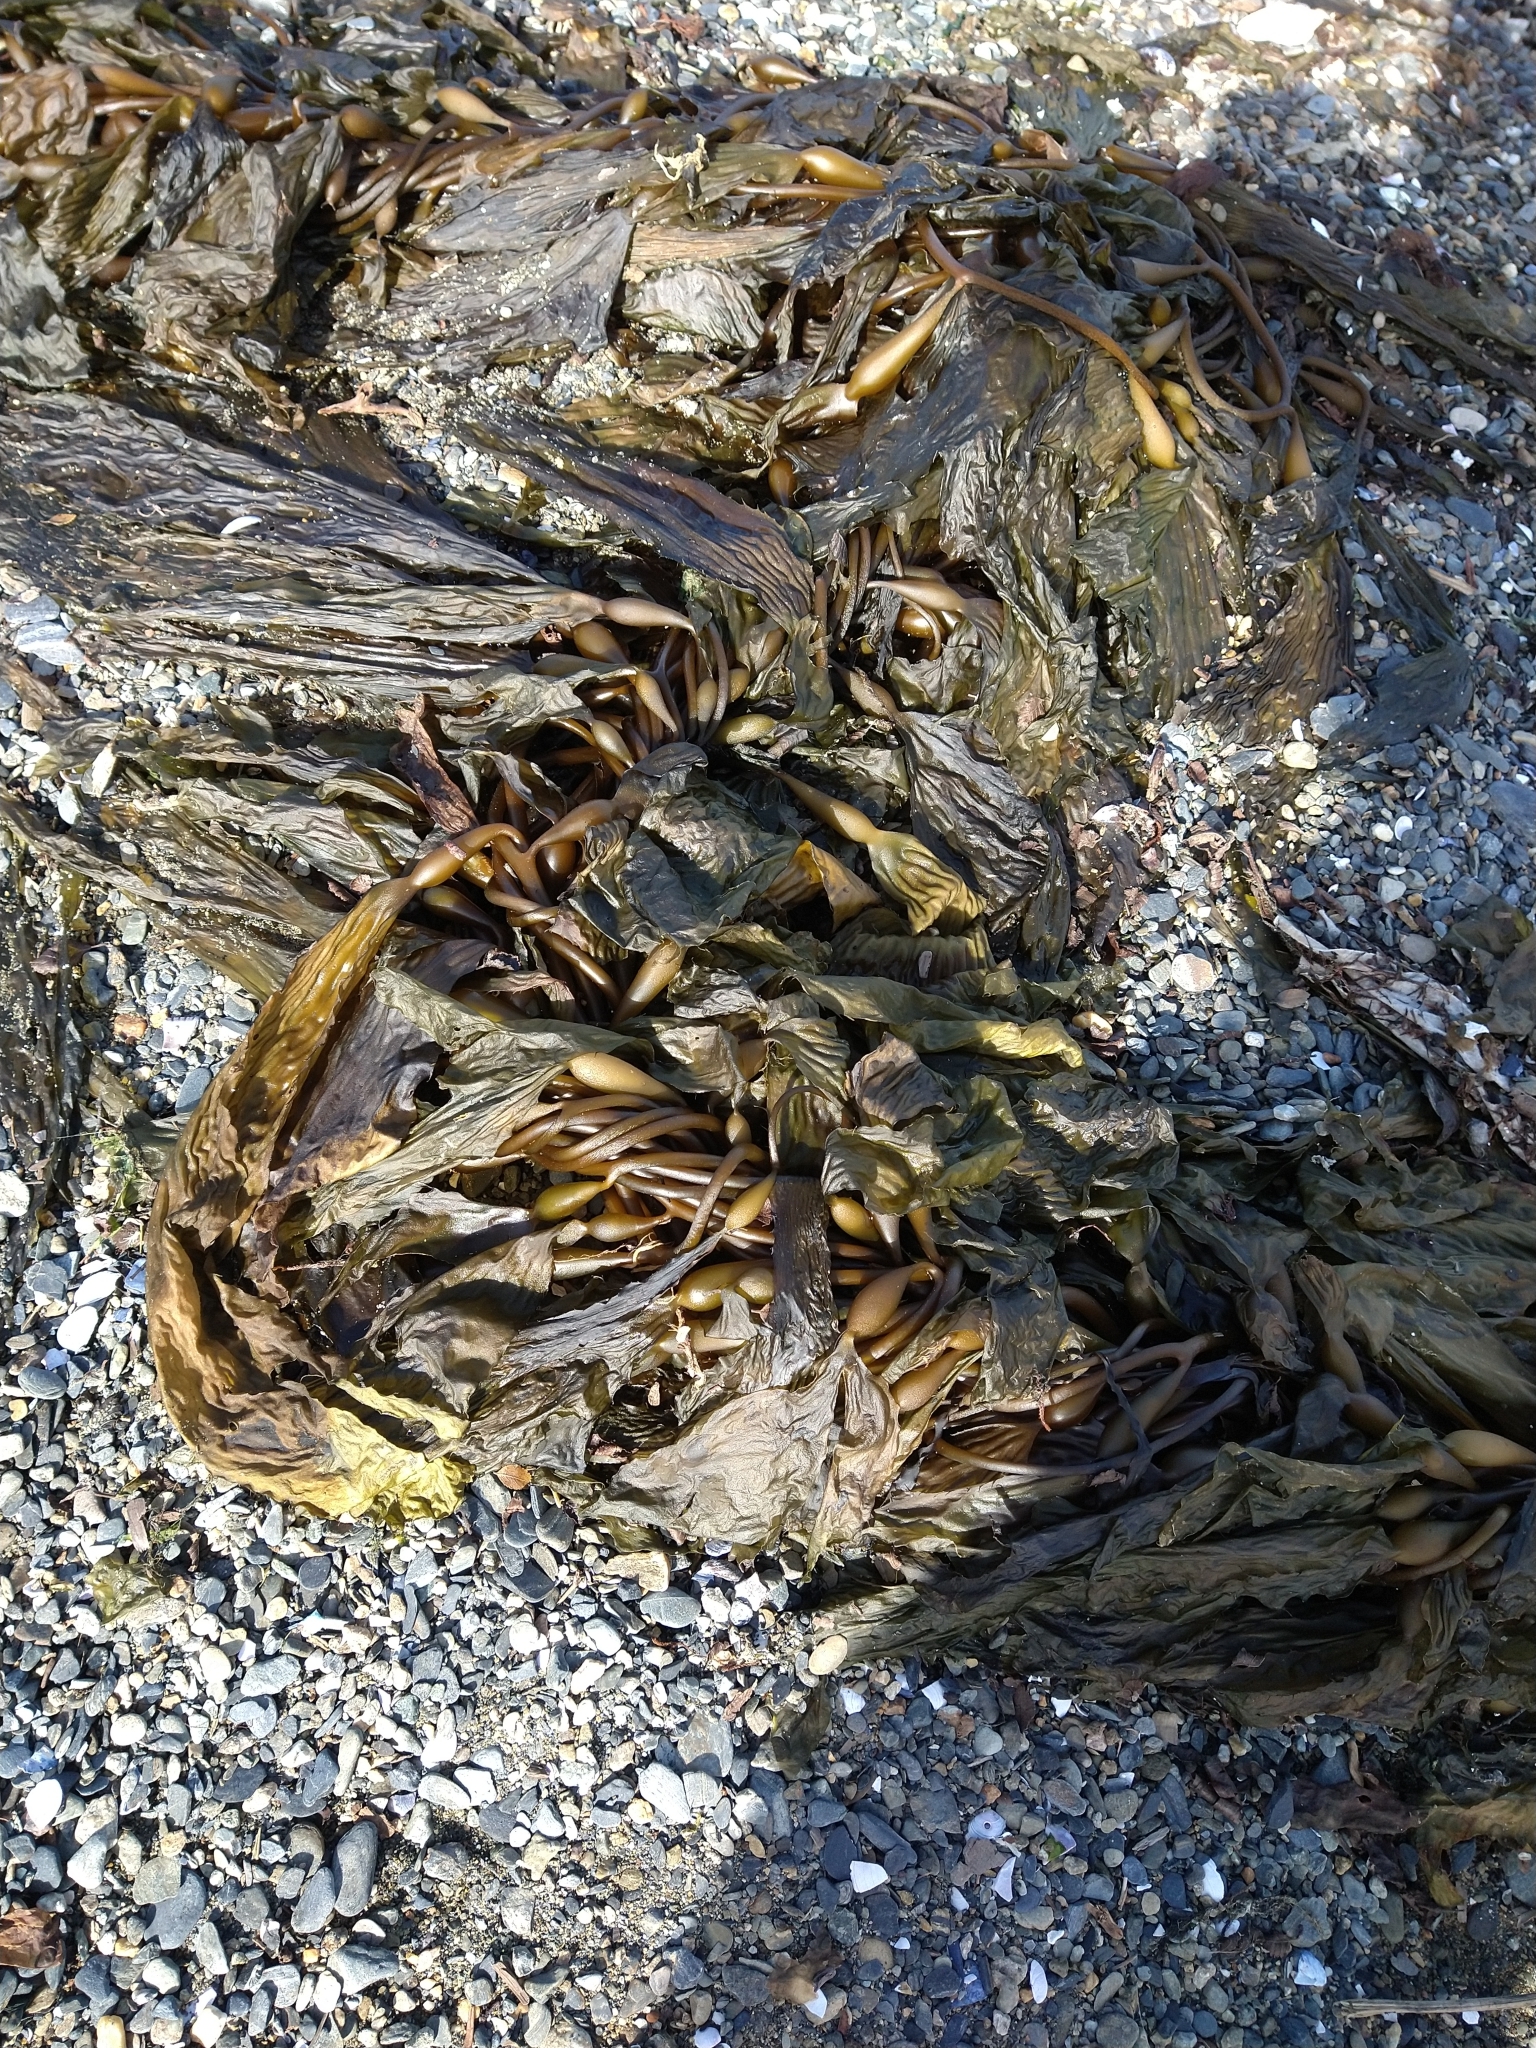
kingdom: Chromista
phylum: Ochrophyta
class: Phaeophyceae
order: Laminariales
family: Laminariaceae
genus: Macrocystis
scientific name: Macrocystis pyrifera
